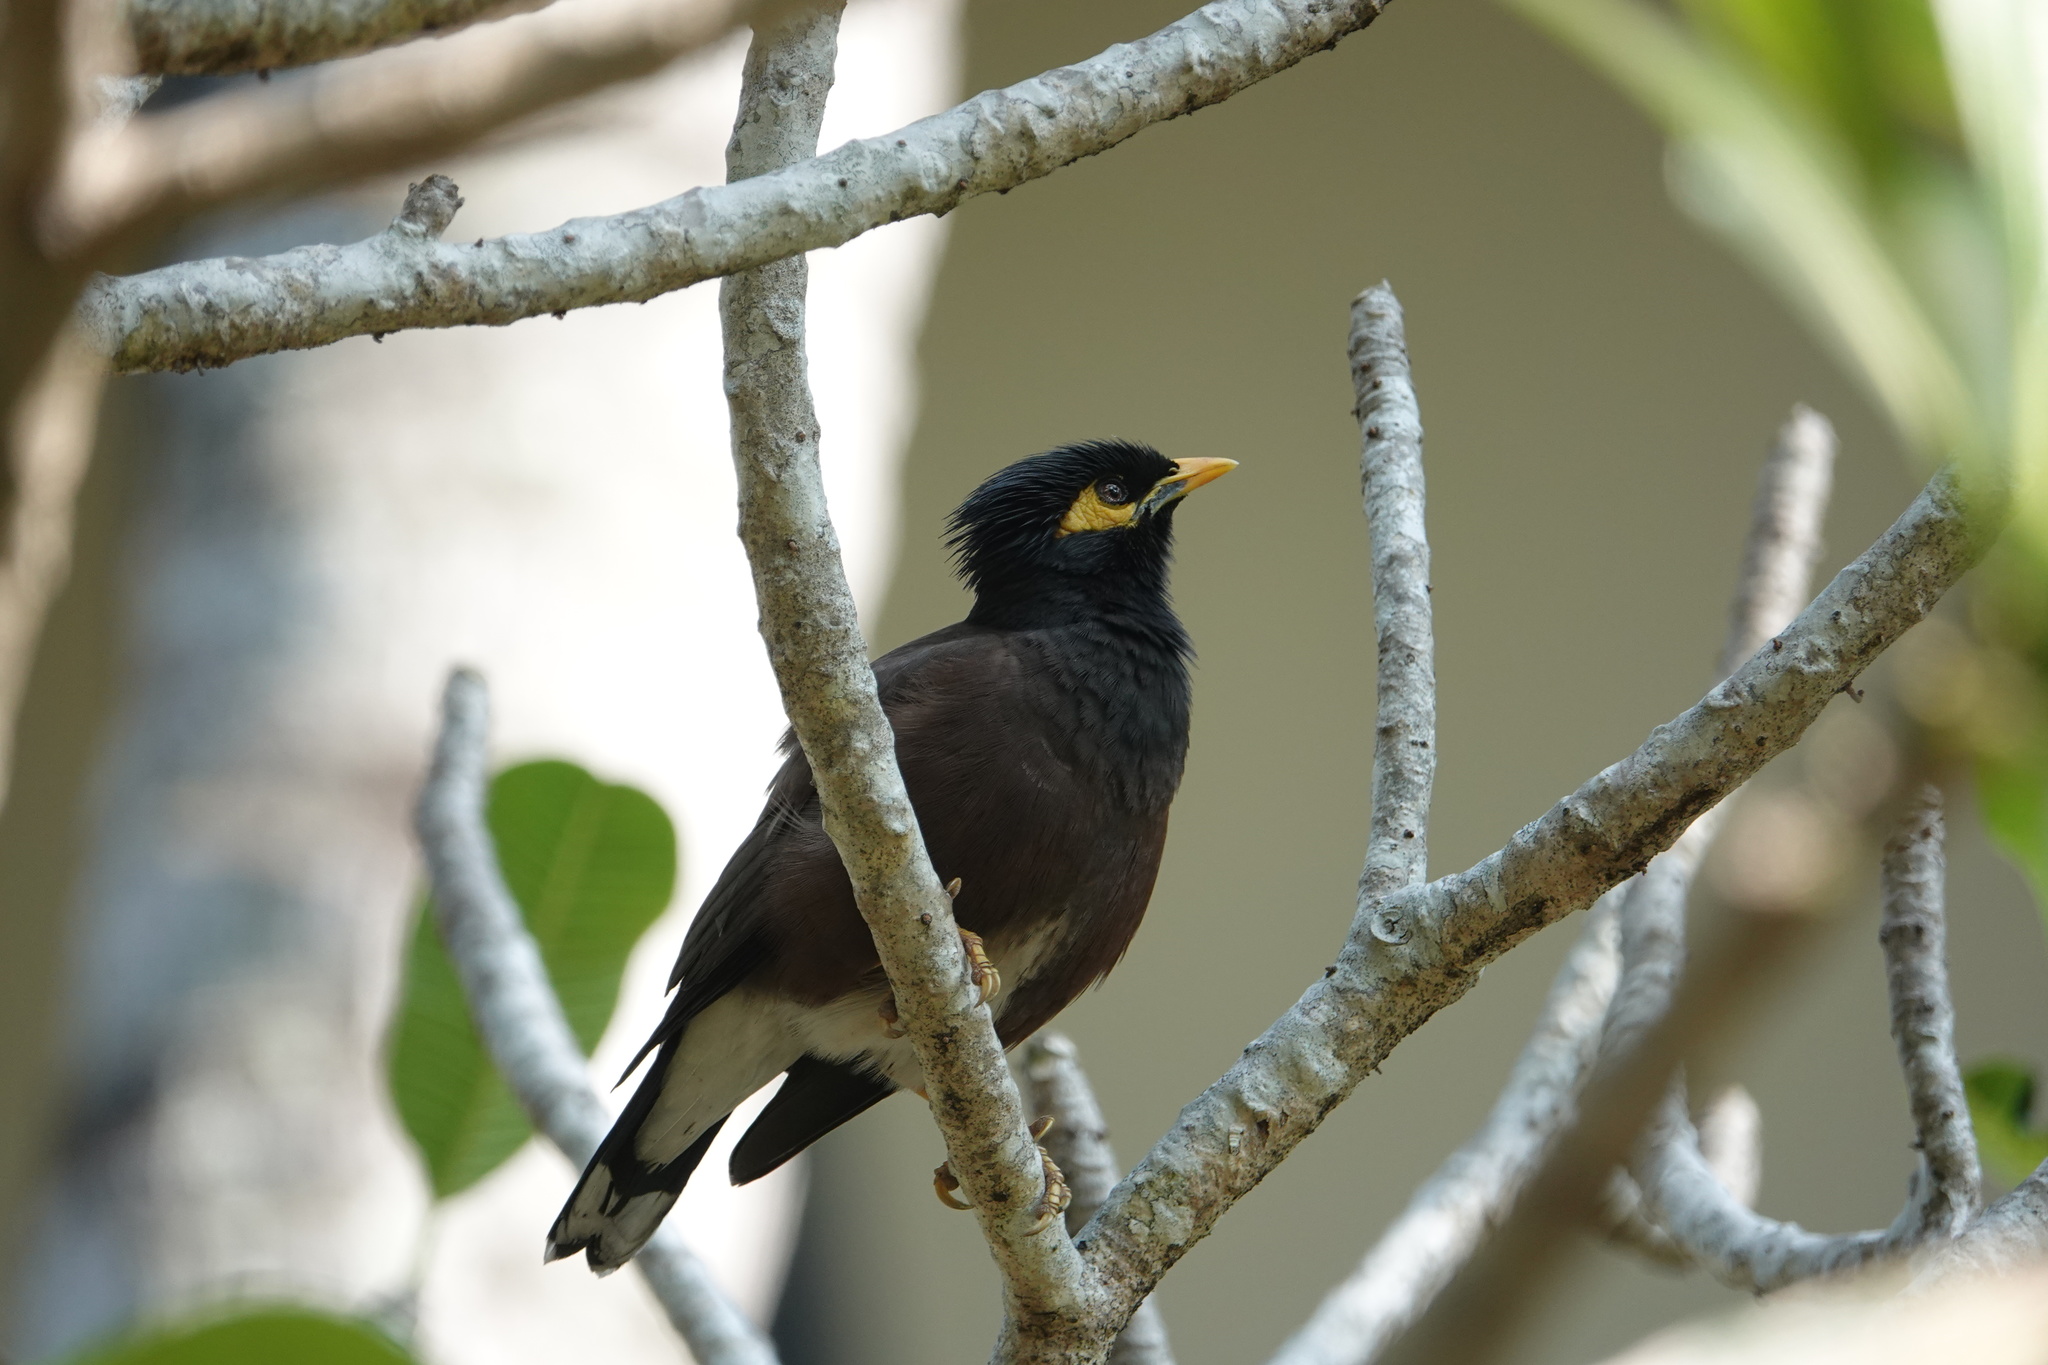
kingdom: Animalia
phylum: Chordata
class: Aves
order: Passeriformes
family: Sturnidae
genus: Acridotheres
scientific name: Acridotheres tristis
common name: Common myna
